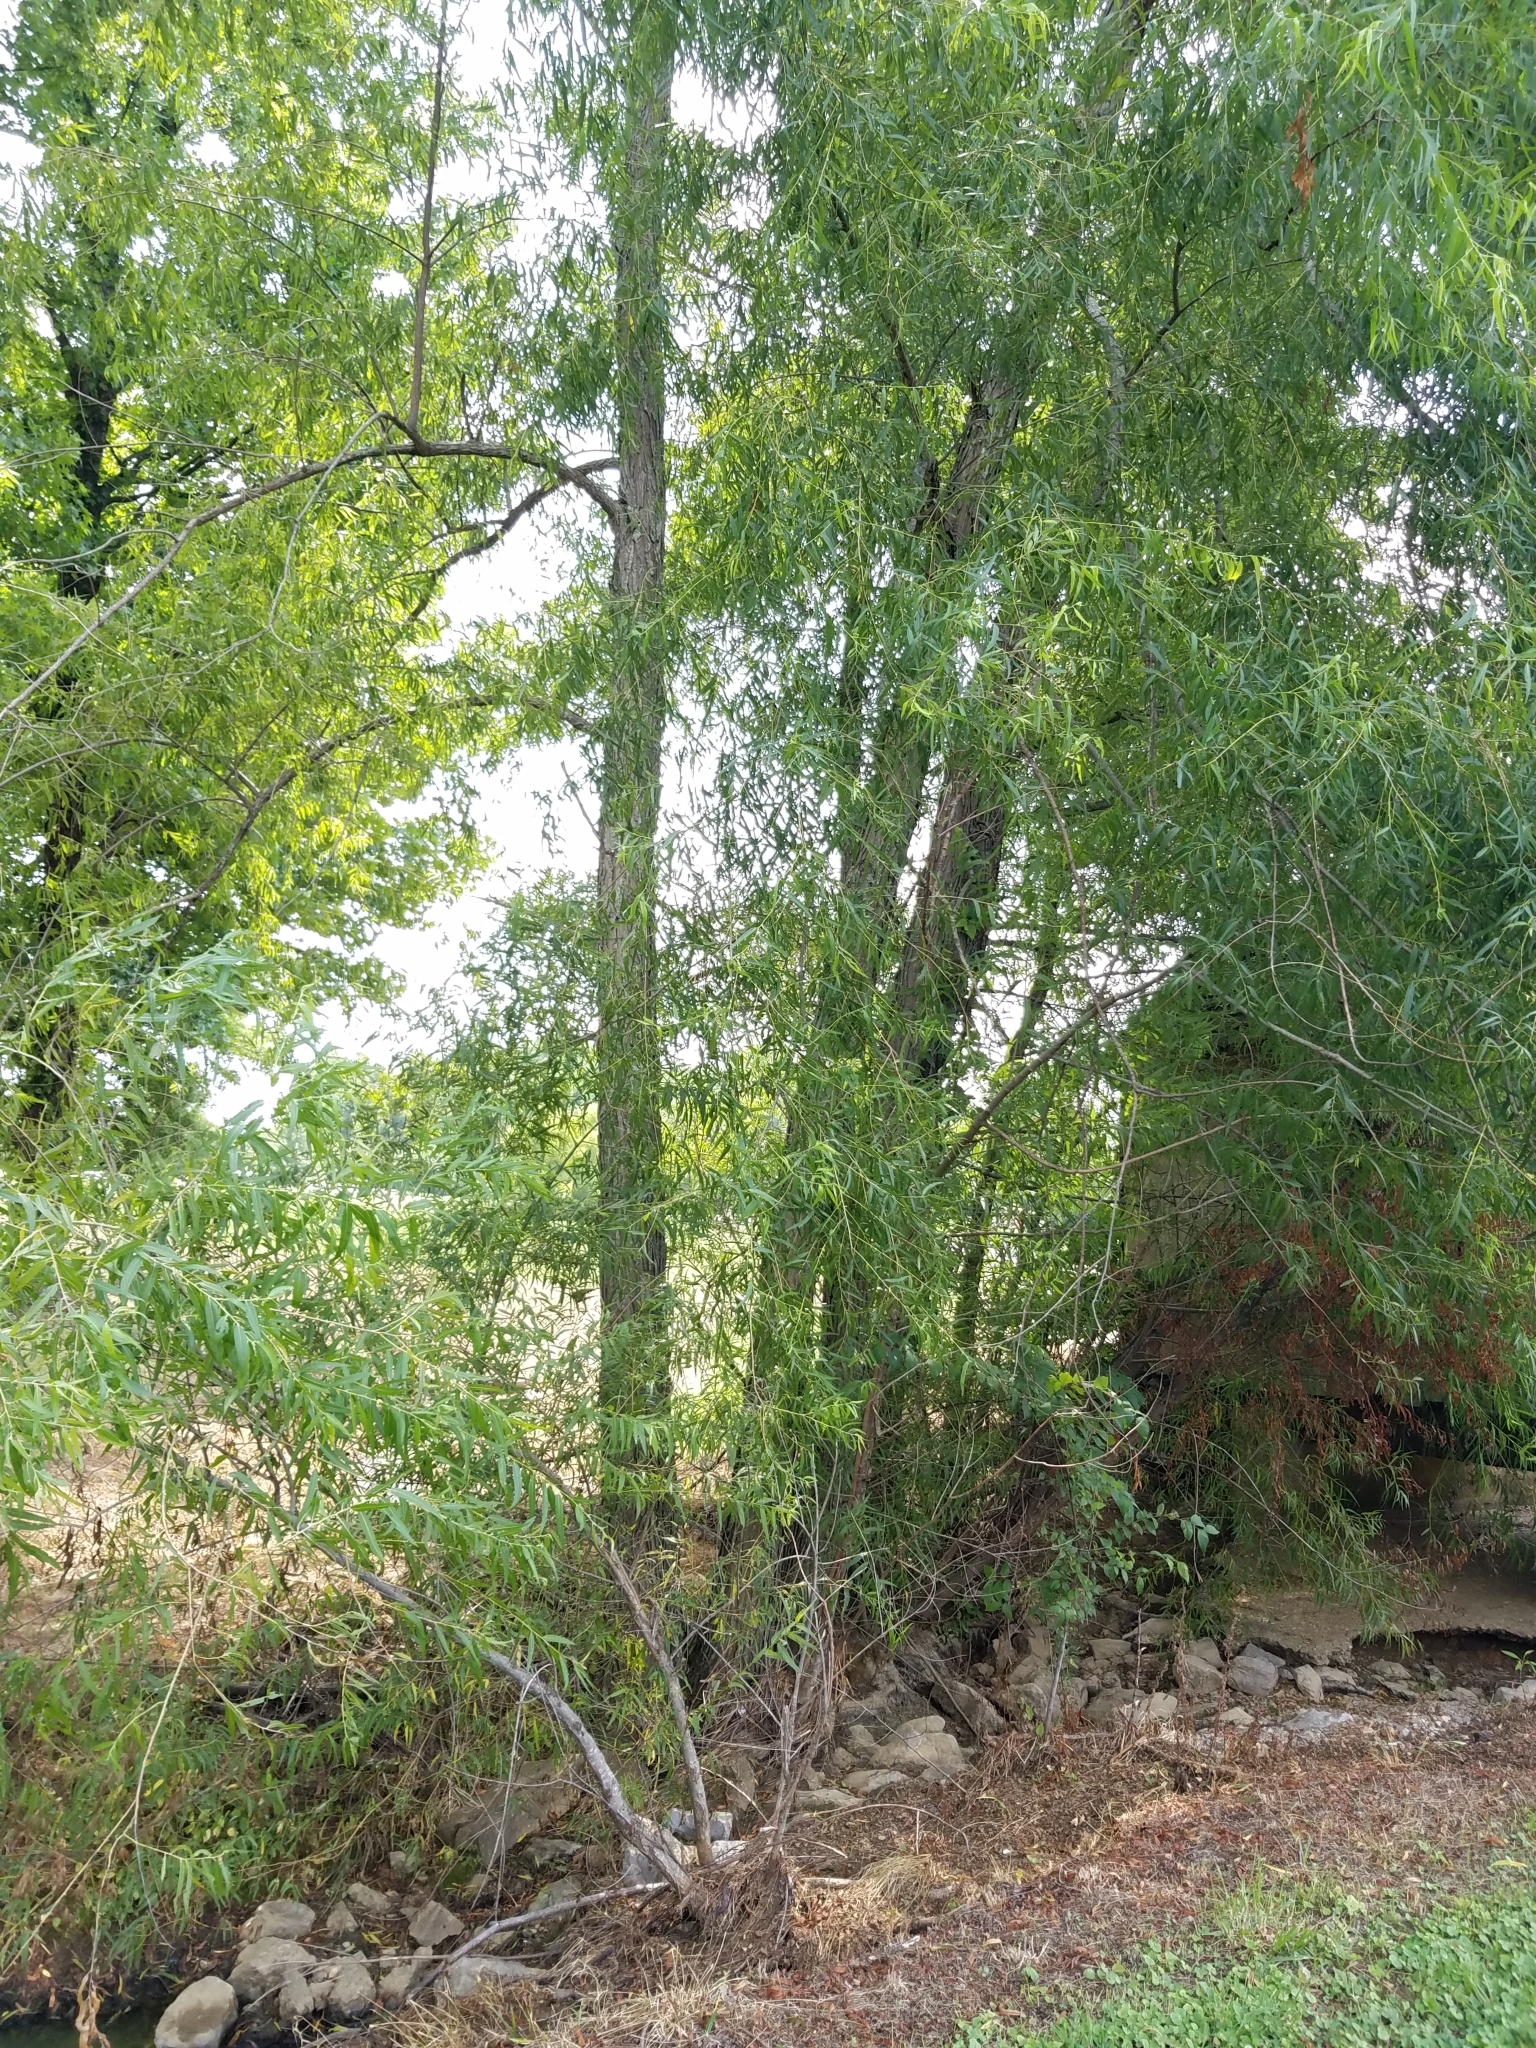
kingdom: Plantae
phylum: Tracheophyta
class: Magnoliopsida
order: Malpighiales
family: Salicaceae
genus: Salix
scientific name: Salix nigra
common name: Black willow
